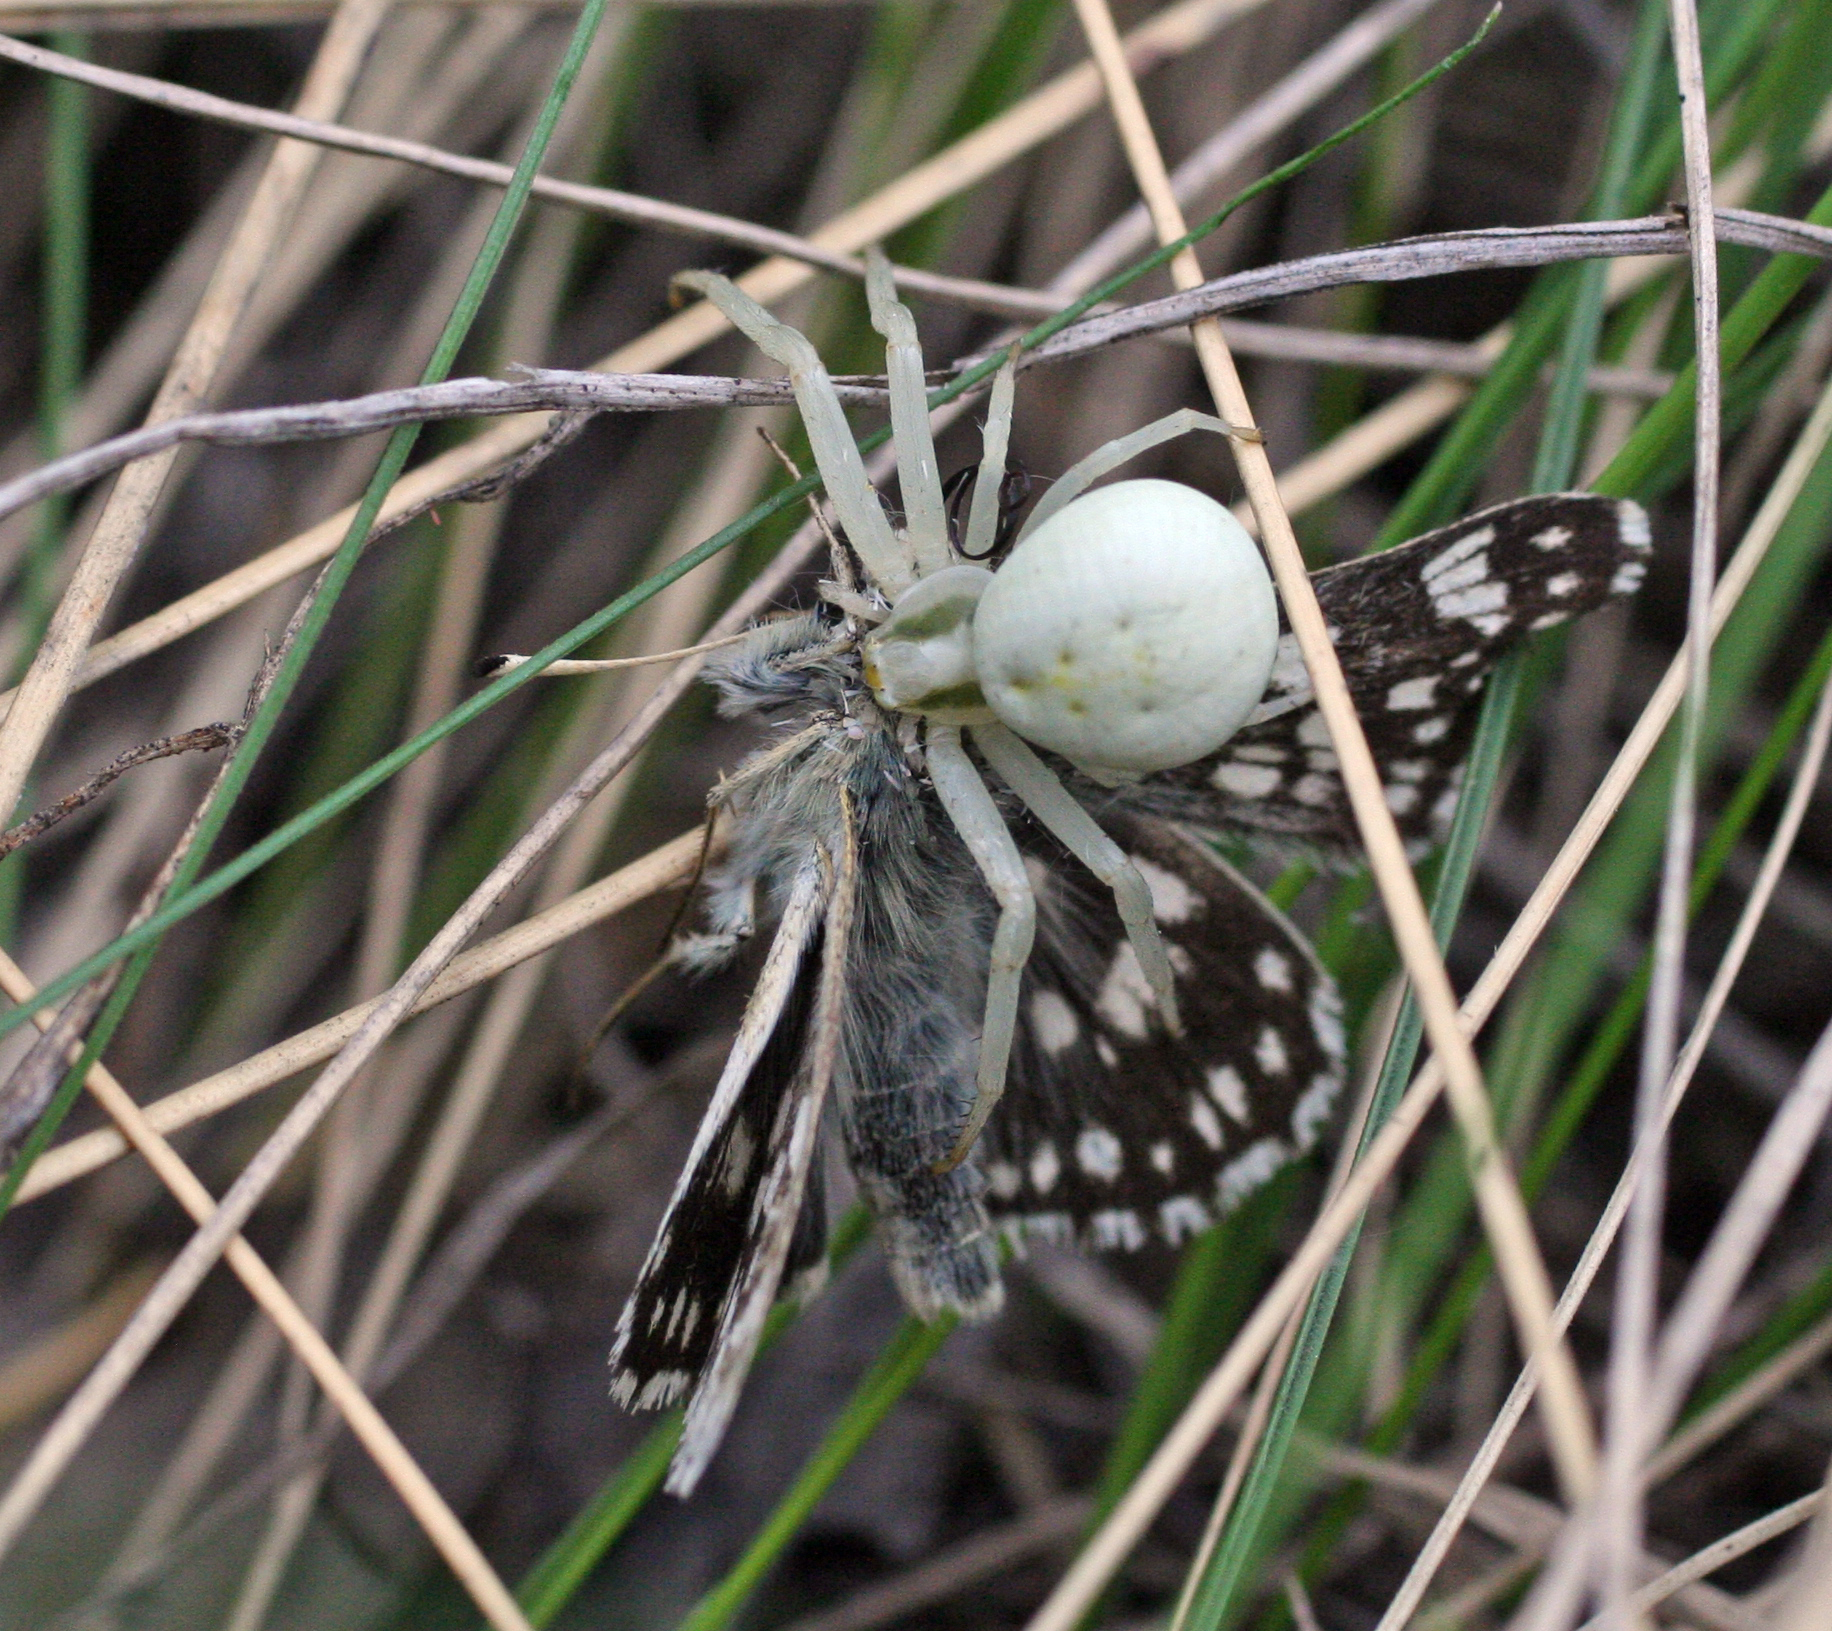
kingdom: Animalia
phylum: Arthropoda
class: Insecta
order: Lepidoptera
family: Hesperiidae
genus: Syrichtus
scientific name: Syrichtus cribrellum
